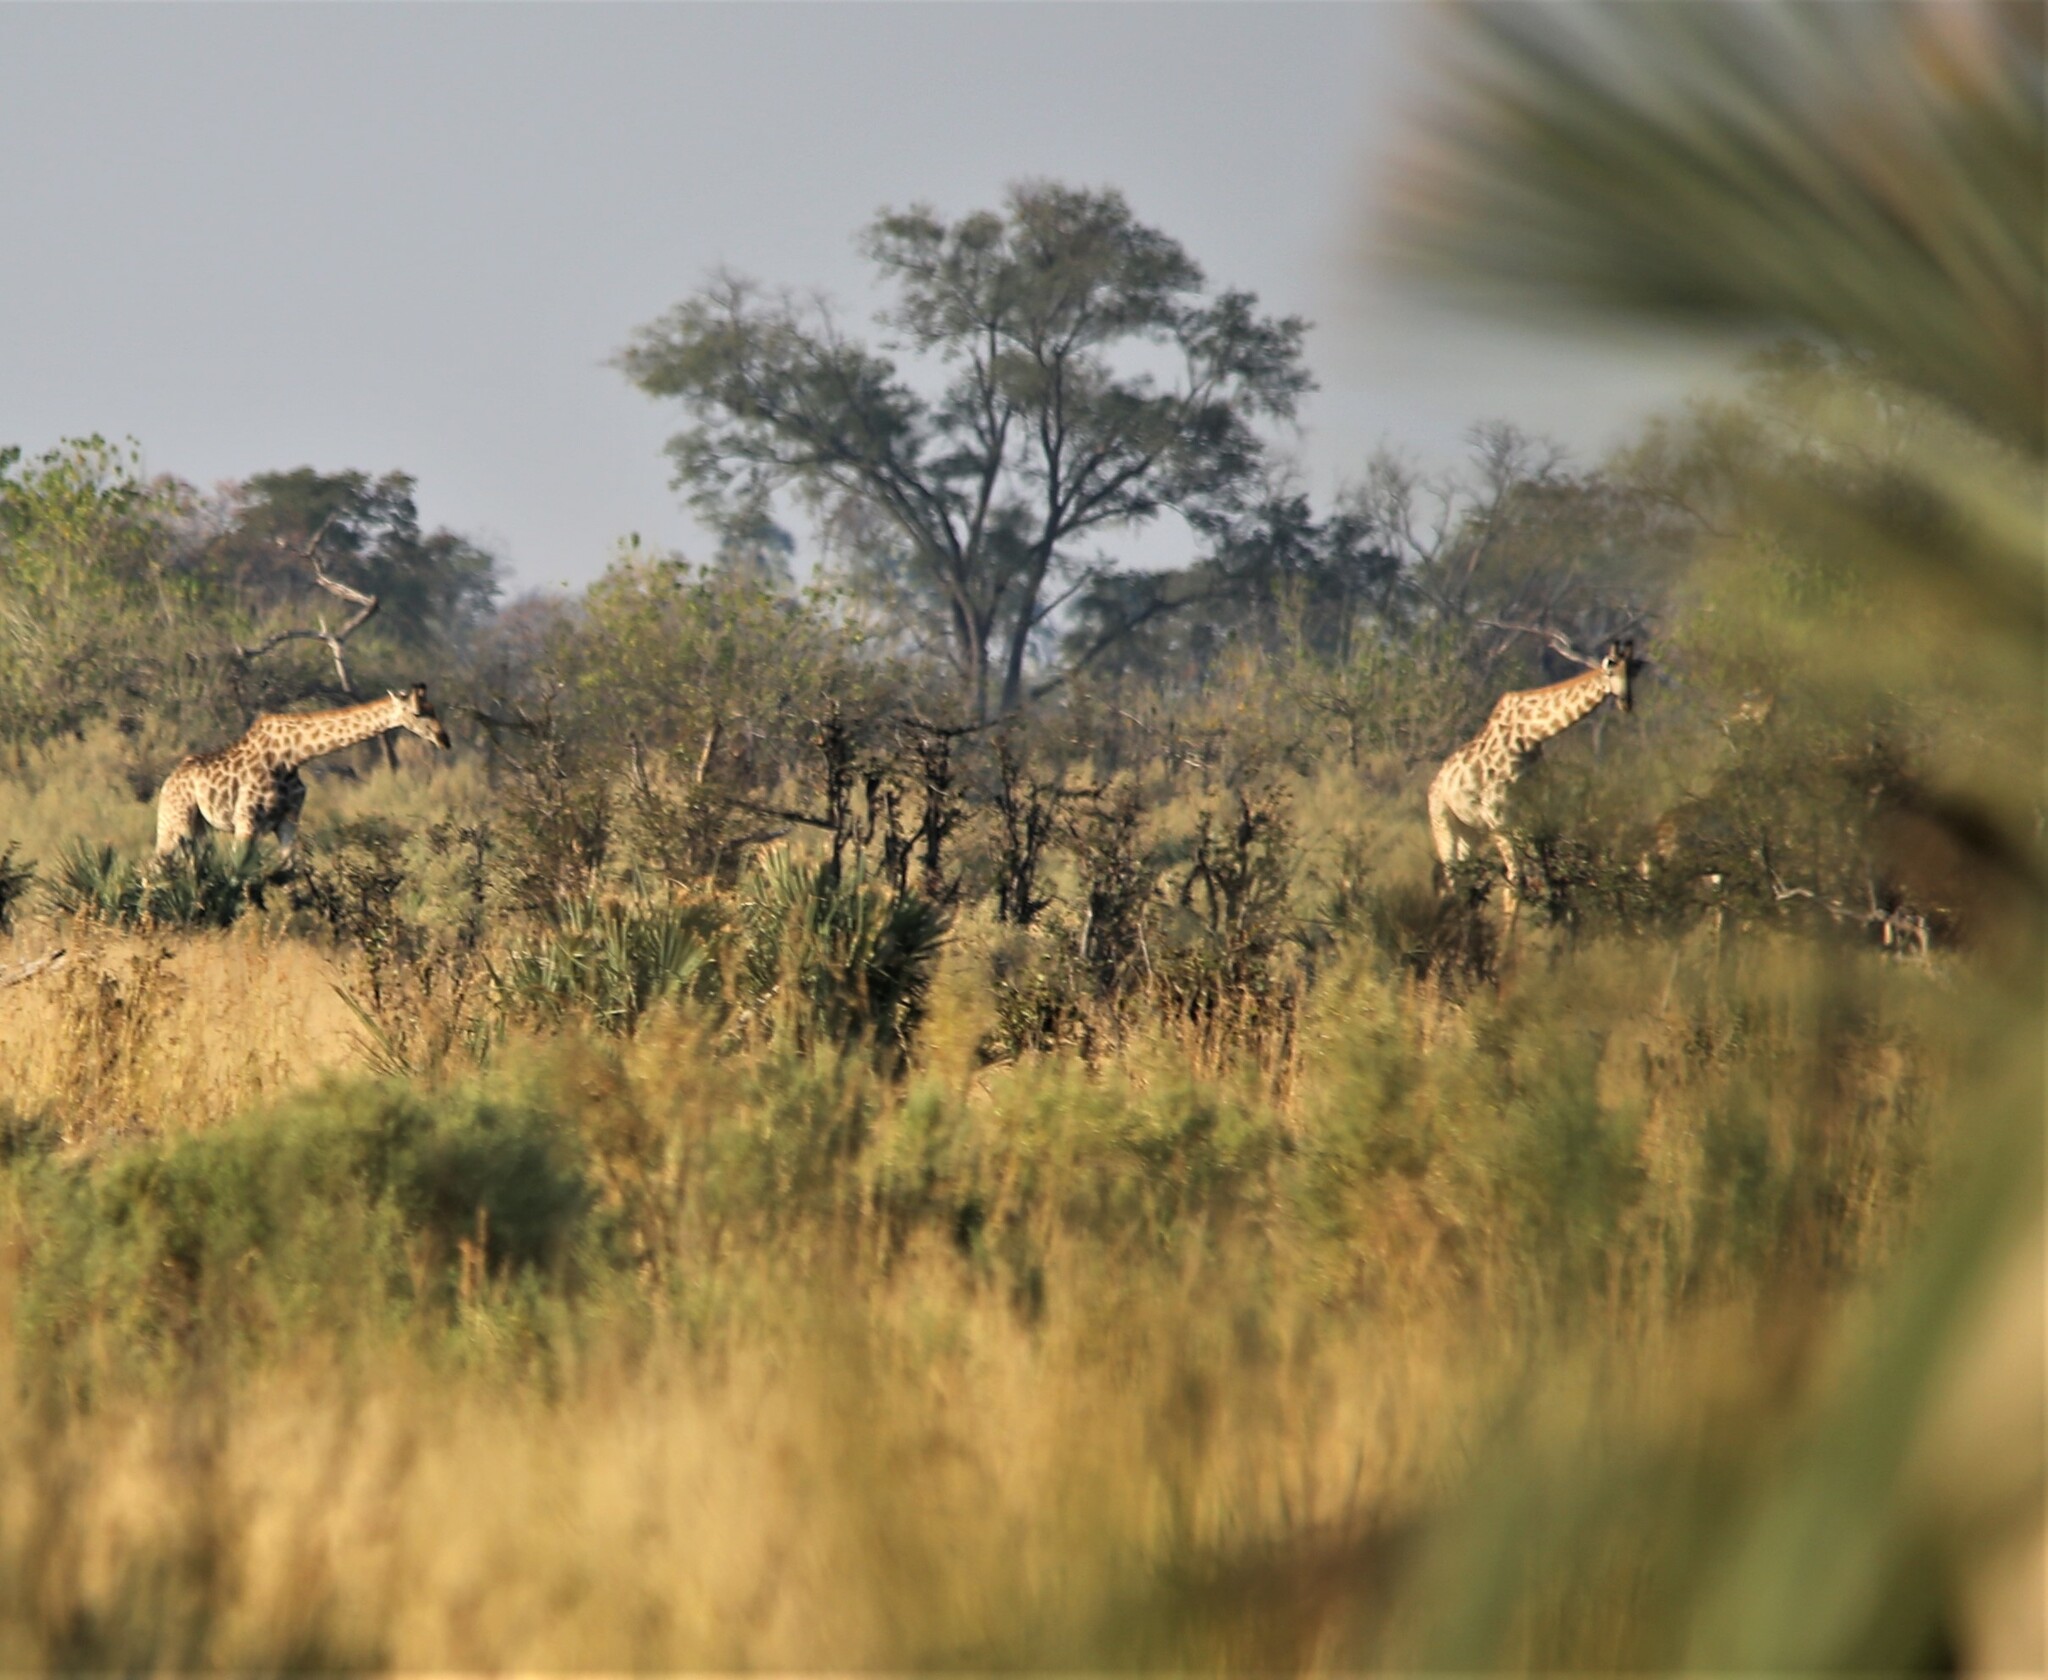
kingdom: Animalia
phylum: Chordata
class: Mammalia
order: Artiodactyla
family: Giraffidae
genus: Giraffa
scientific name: Giraffa giraffa
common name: Southern giraffe
